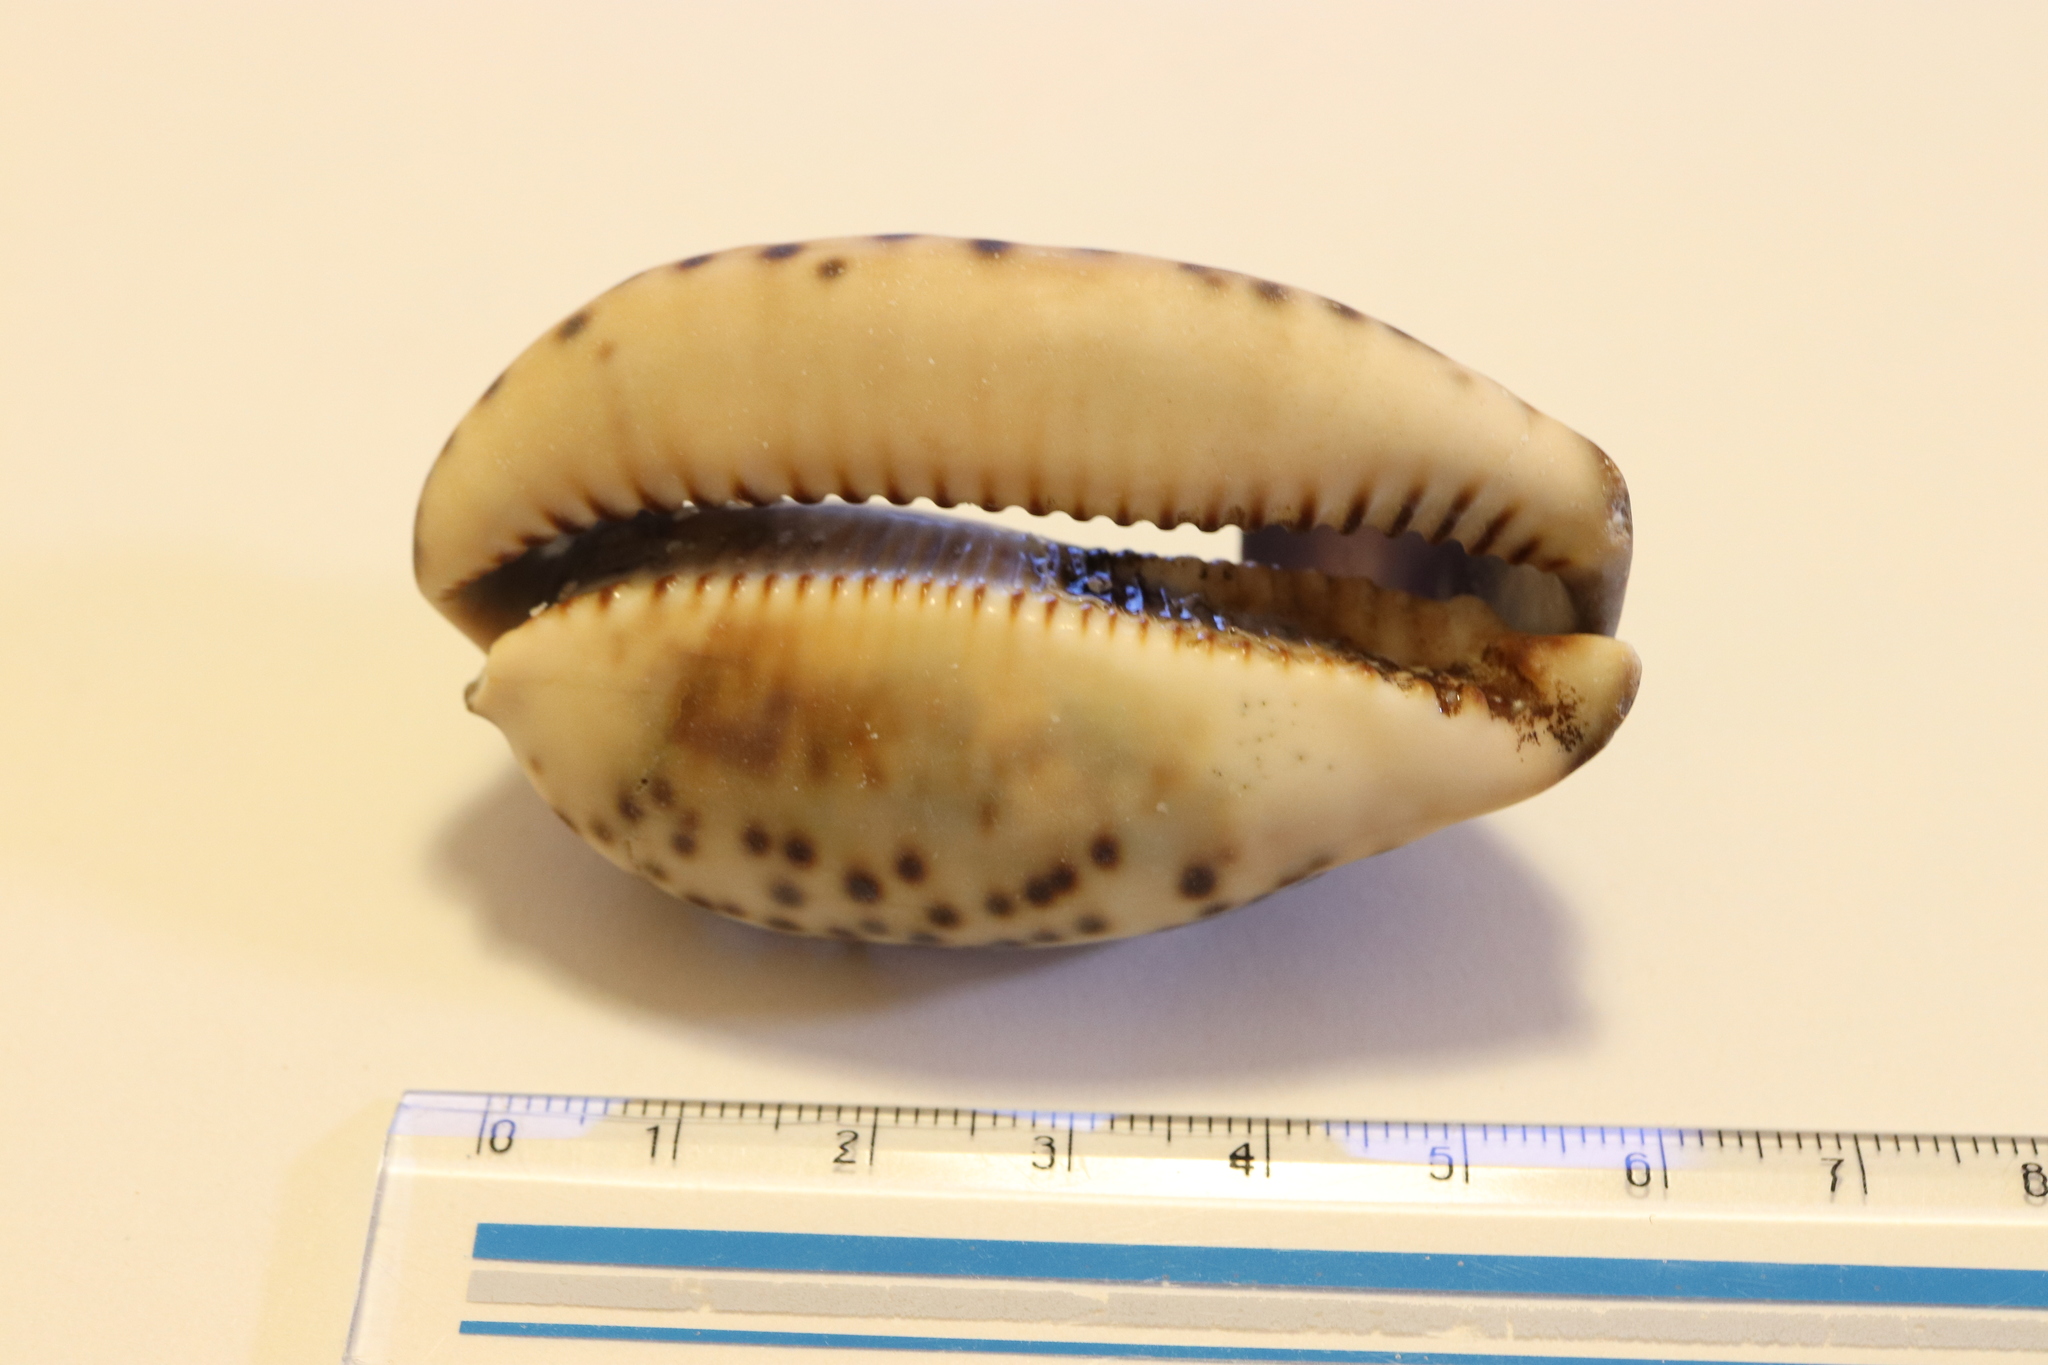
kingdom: Animalia
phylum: Mollusca
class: Gastropoda
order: Littorinimorpha
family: Cypraeidae
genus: Mauritia
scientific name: Mauritia arabica
